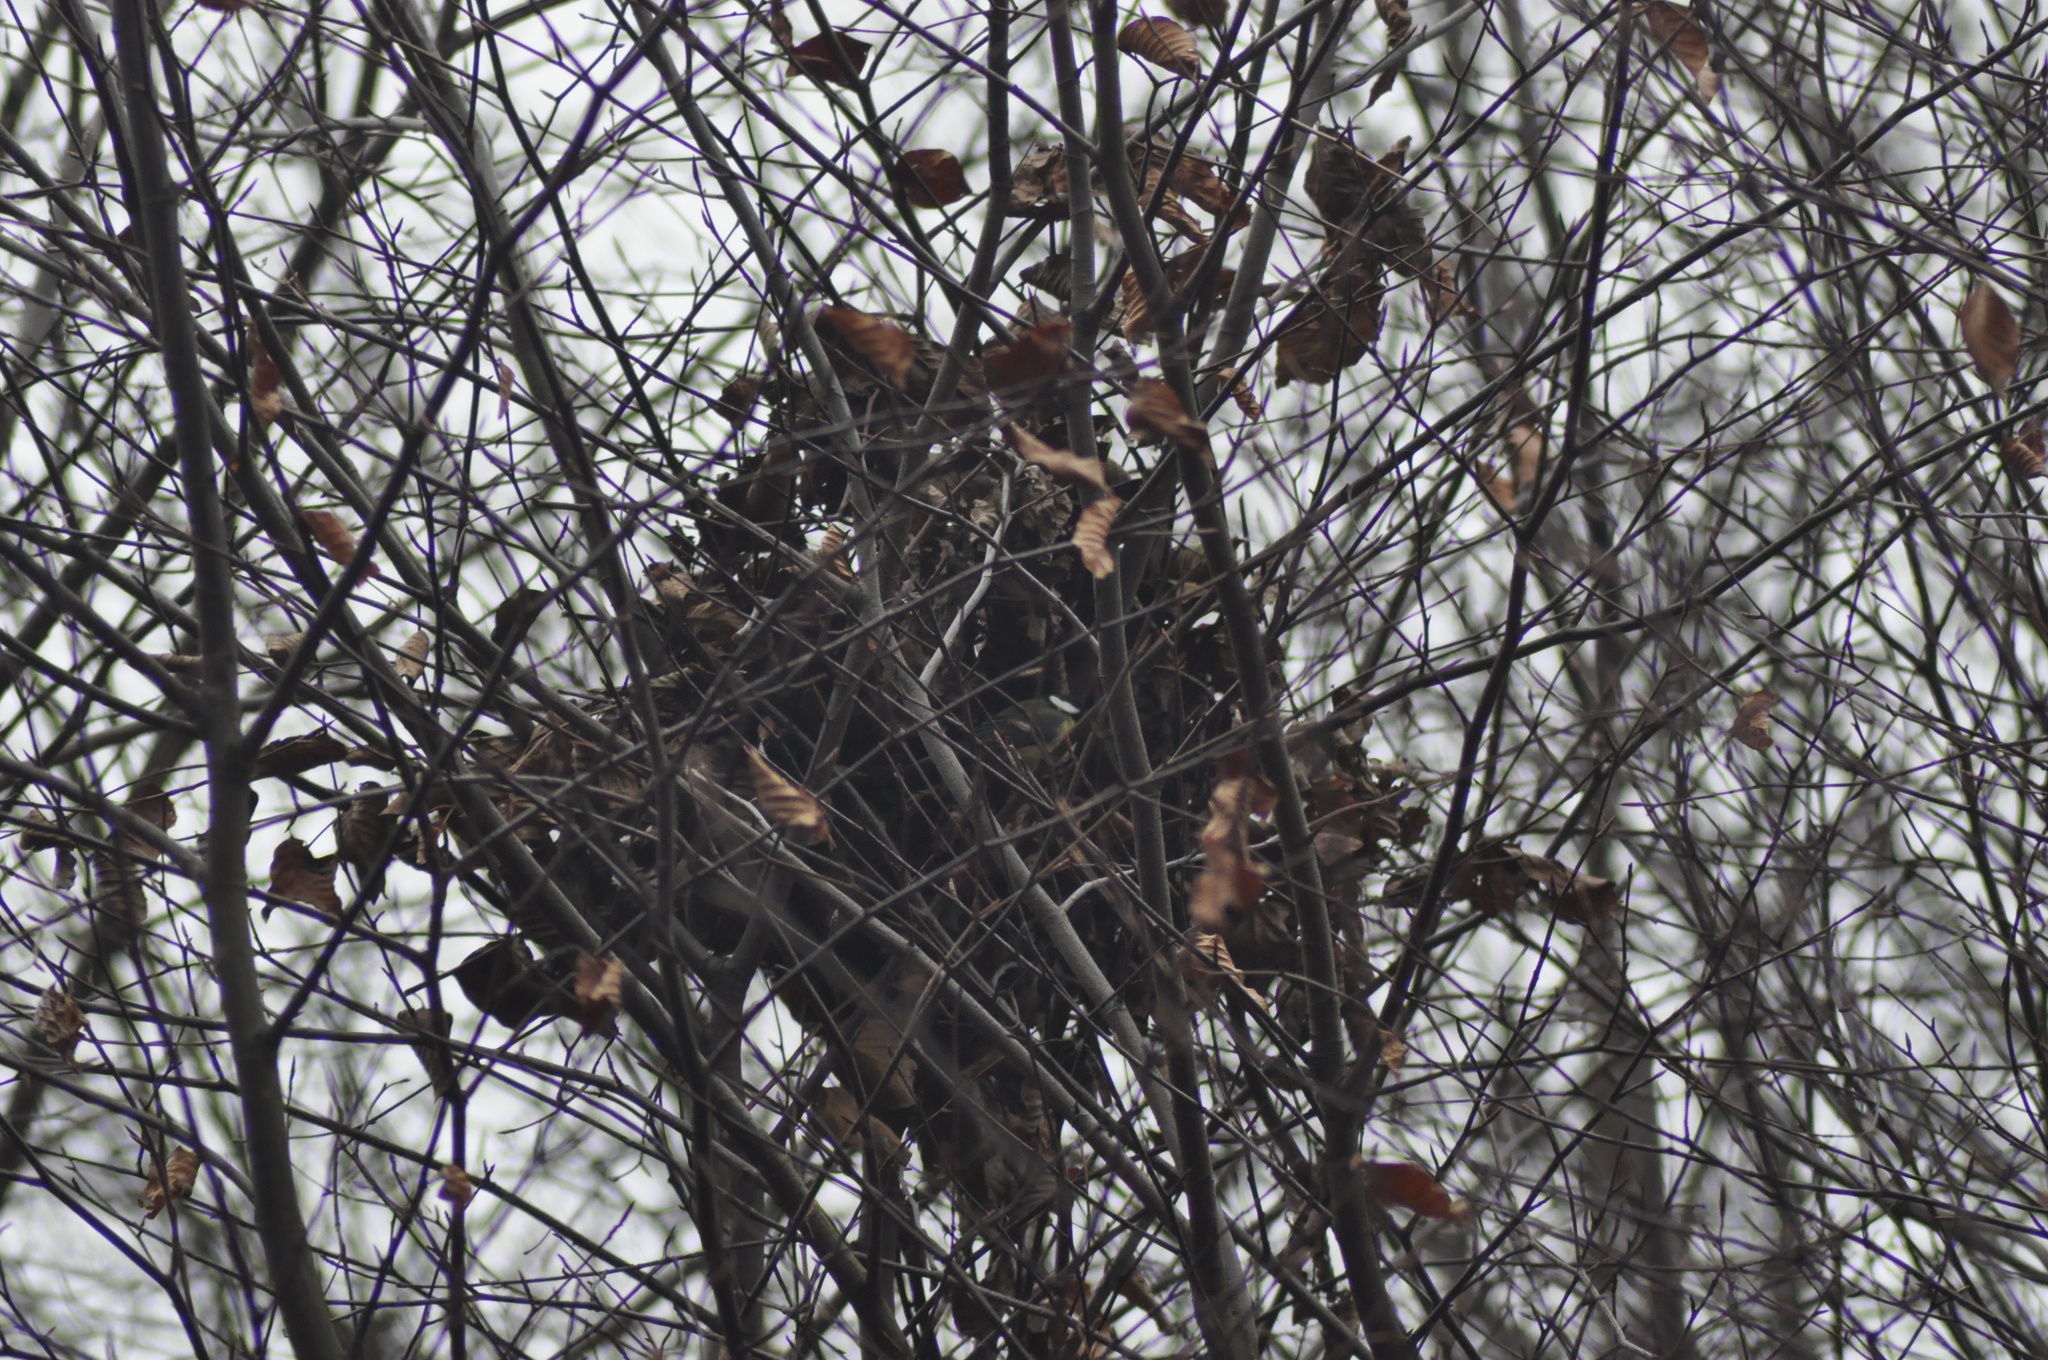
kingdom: Animalia
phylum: Chordata
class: Aves
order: Passeriformes
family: Paridae
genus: Parus
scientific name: Parus major
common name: Great tit
